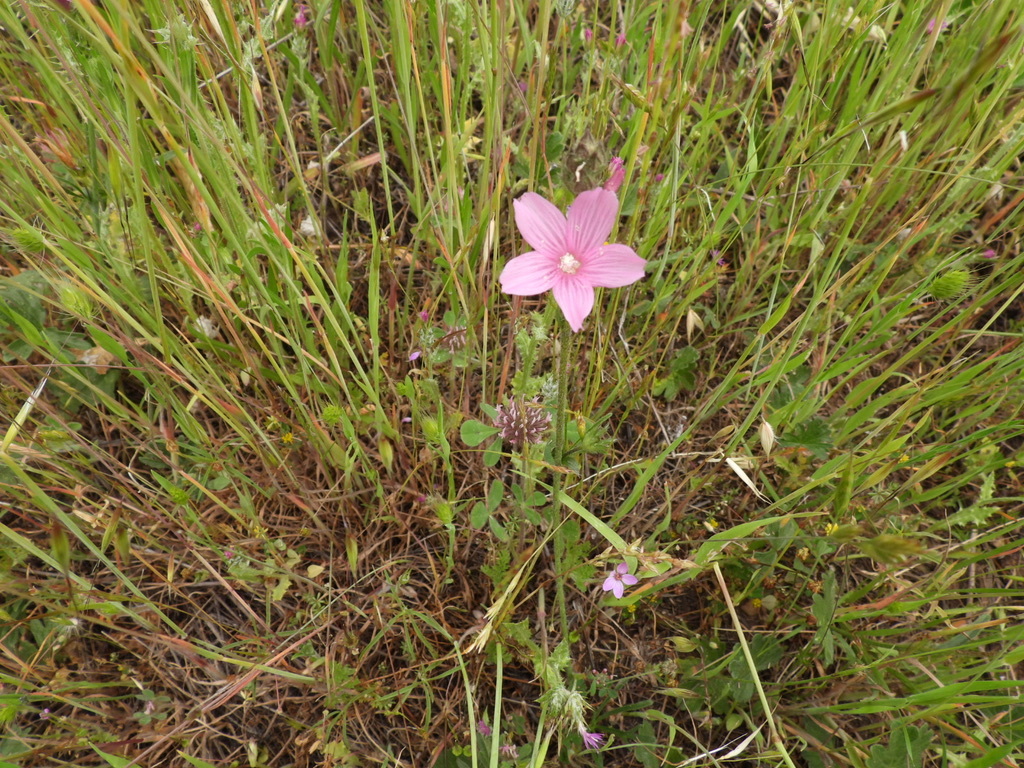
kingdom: Plantae
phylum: Tracheophyta
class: Magnoliopsida
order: Malvales
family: Malvaceae
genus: Sidalcea
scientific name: Sidalcea malviflora
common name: Greek mallow
